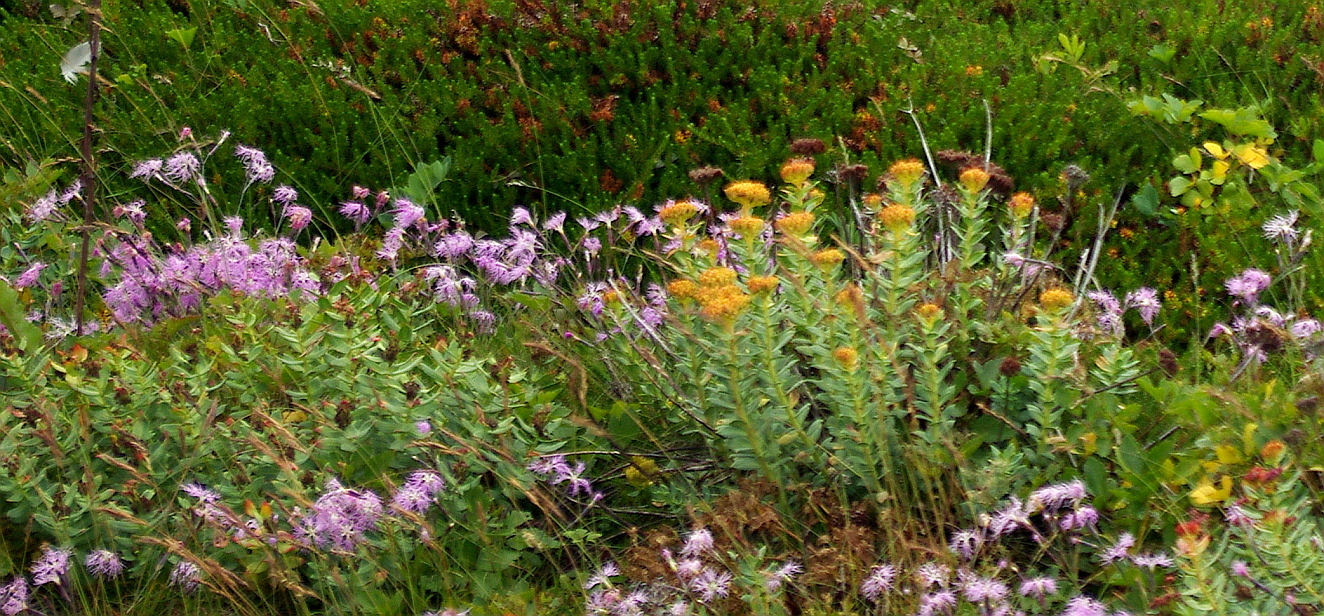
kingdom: Plantae
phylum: Tracheophyta
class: Magnoliopsida
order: Saxifragales
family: Crassulaceae
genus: Rhodiola
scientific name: Rhodiola rosea
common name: Roseroot
